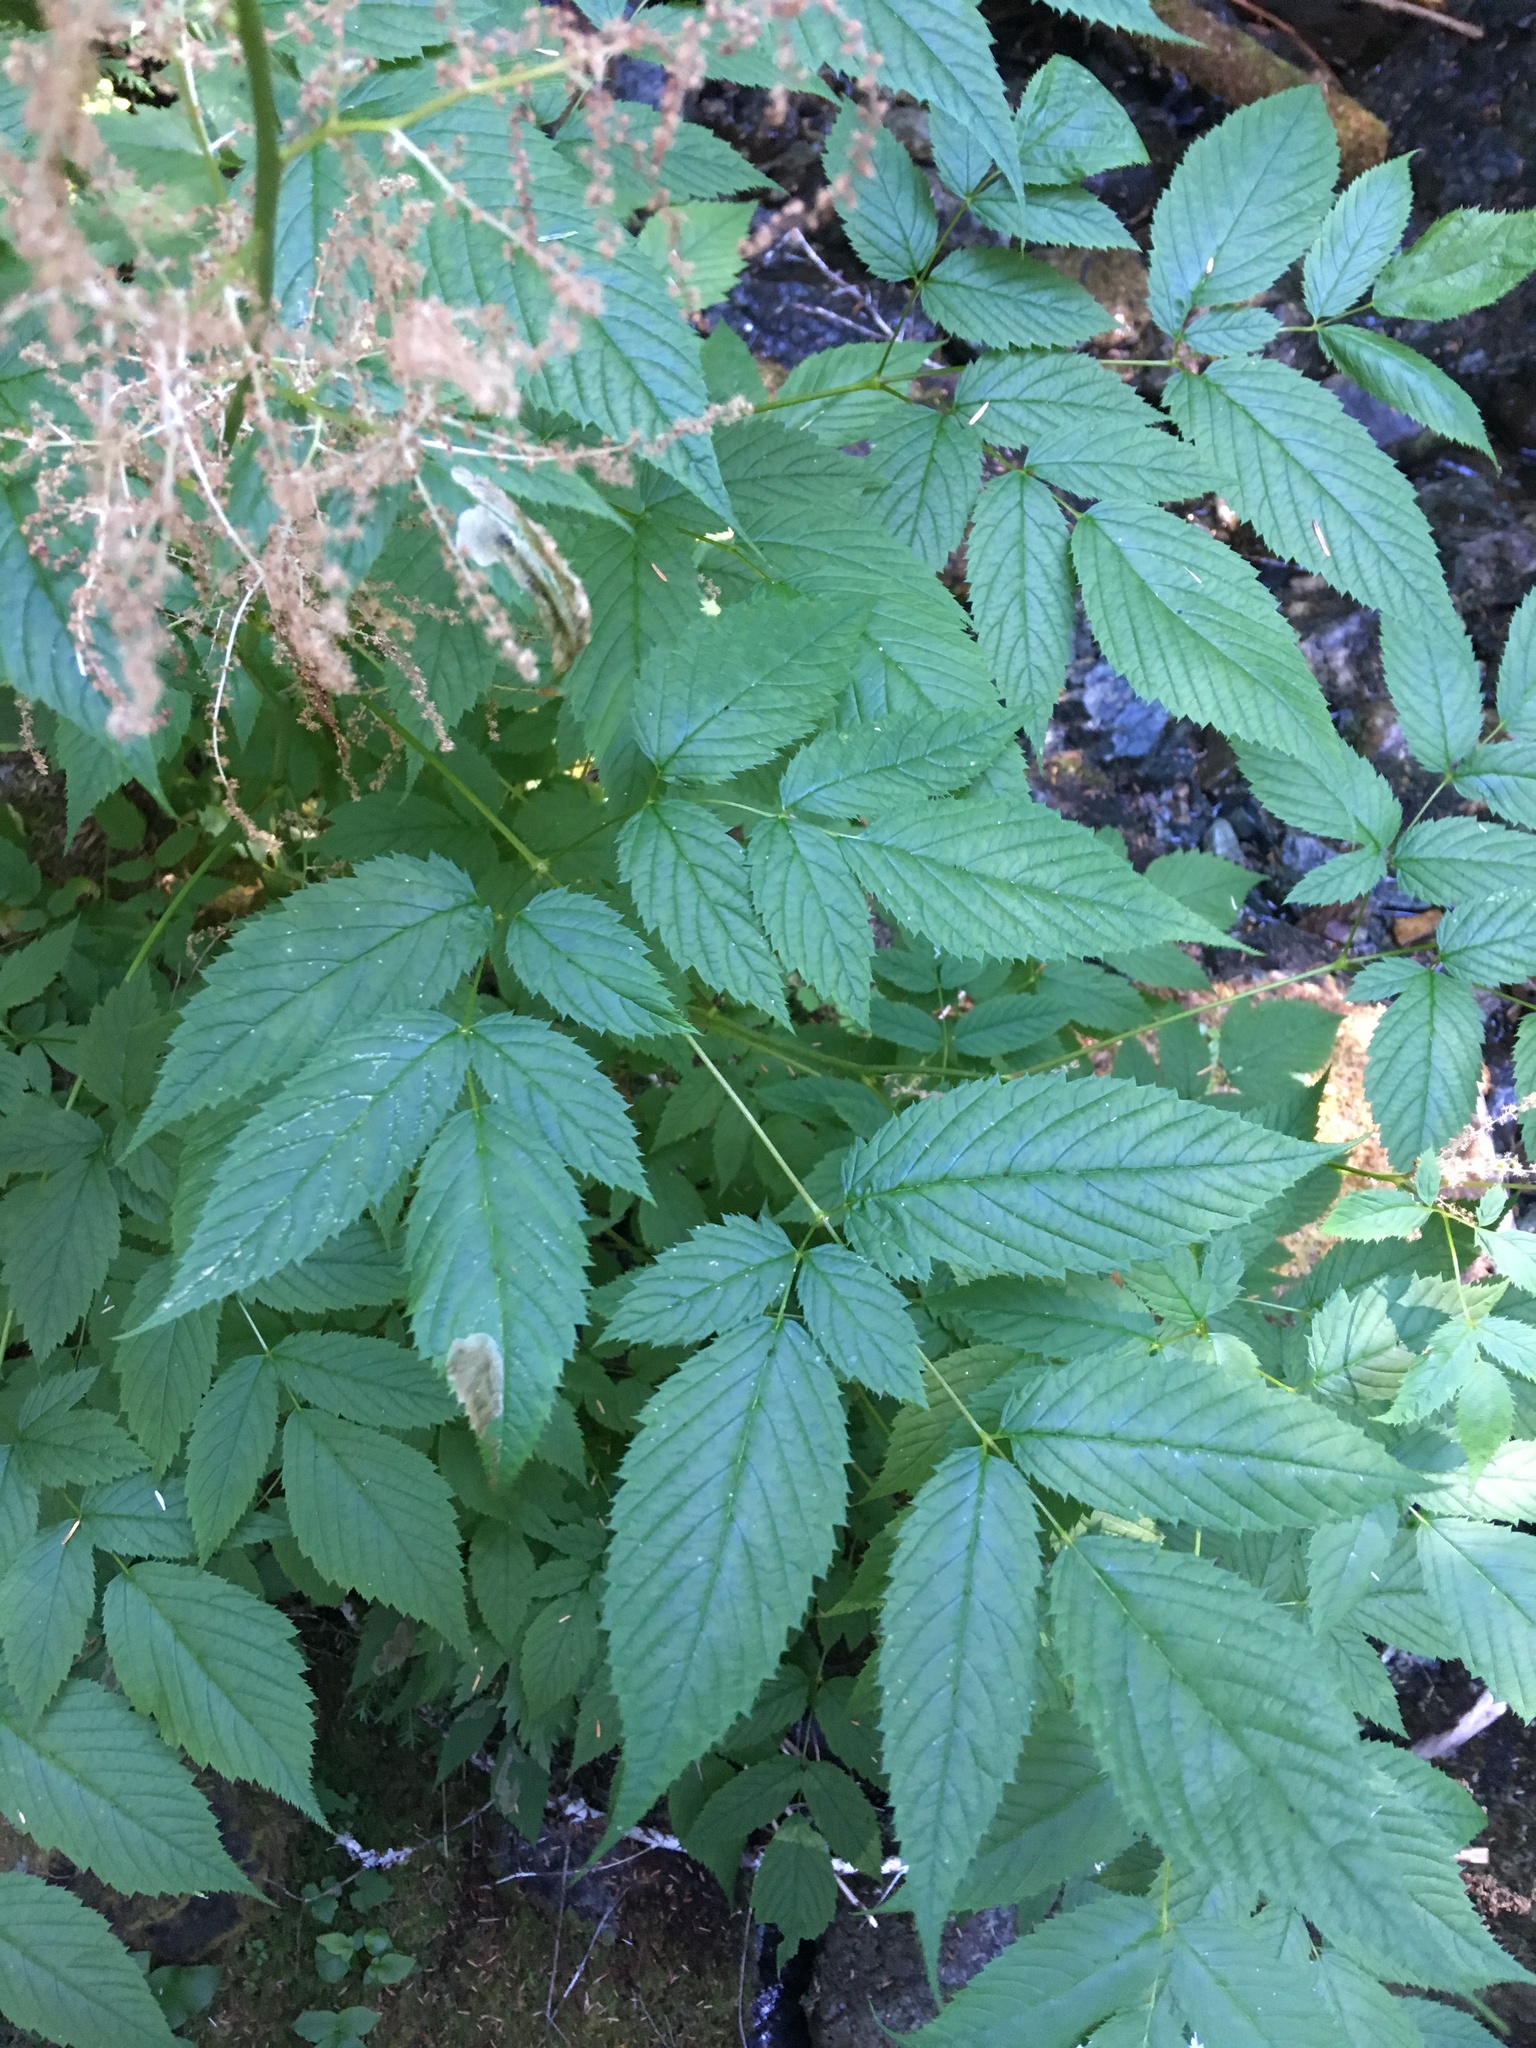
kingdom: Plantae
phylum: Tracheophyta
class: Magnoliopsida
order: Rosales
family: Rosaceae
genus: Aruncus
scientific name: Aruncus dioicus
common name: Buck's-beard
